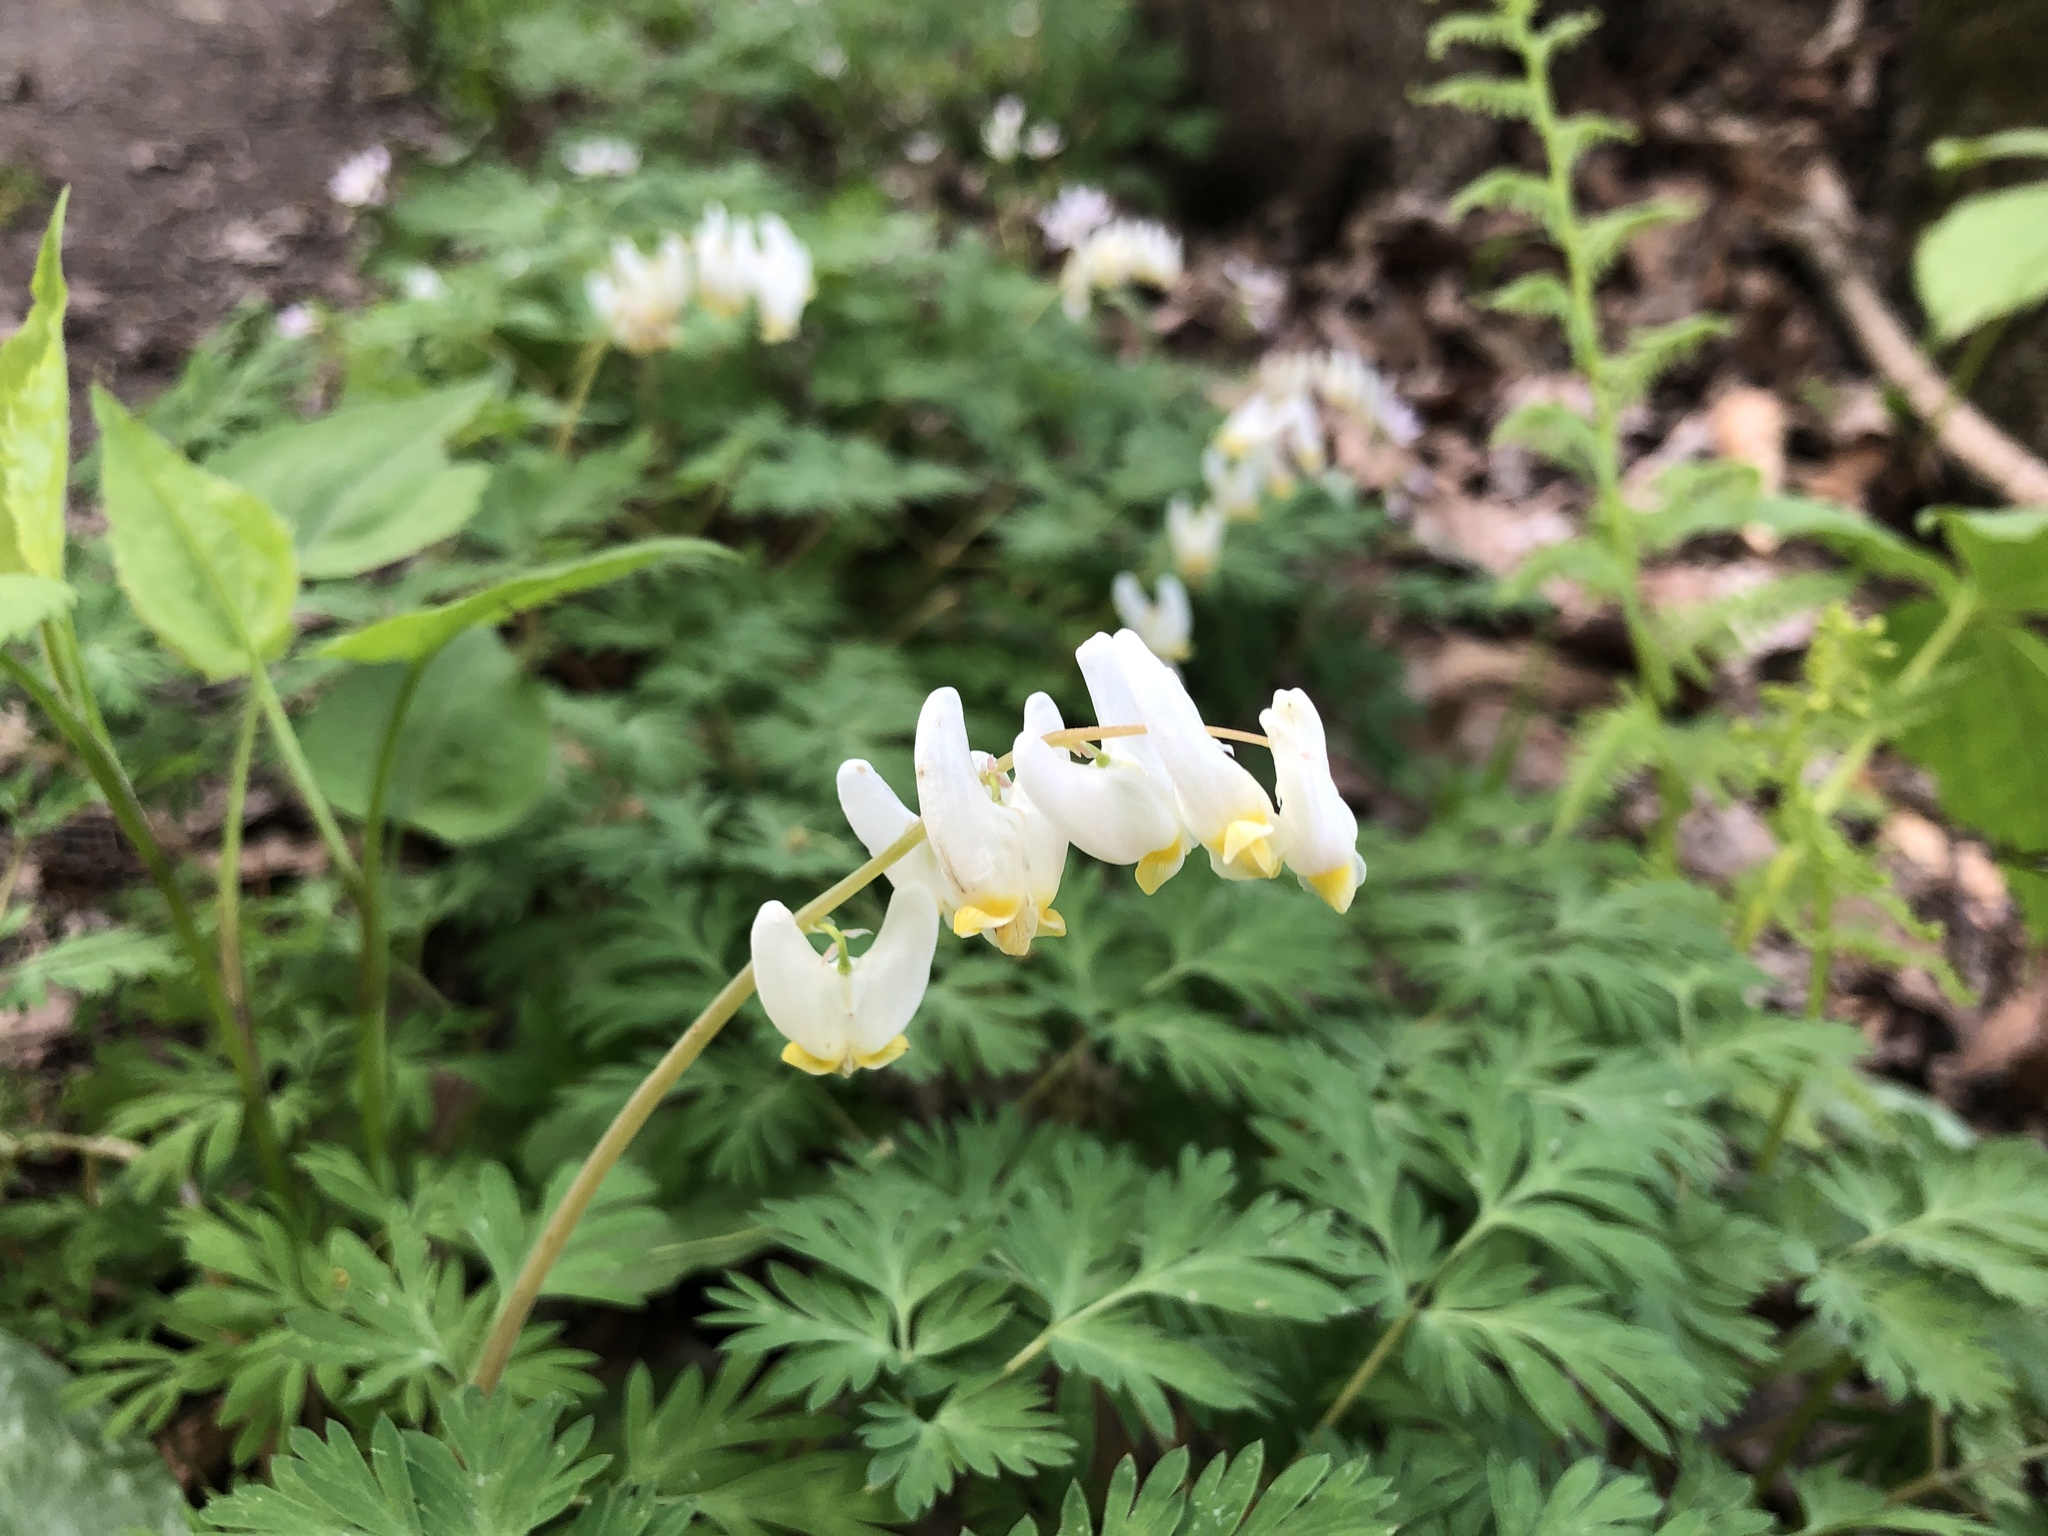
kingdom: Plantae
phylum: Tracheophyta
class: Magnoliopsida
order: Ranunculales
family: Papaveraceae
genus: Dicentra
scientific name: Dicentra cucullaria
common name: Dutchman's breeches
